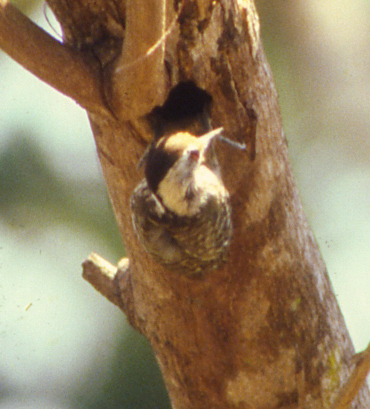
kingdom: Animalia
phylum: Chordata
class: Aves
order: Piciformes
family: Picidae
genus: Dendropicos
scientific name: Dendropicos fuscescens
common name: Cardinal woodpecker
